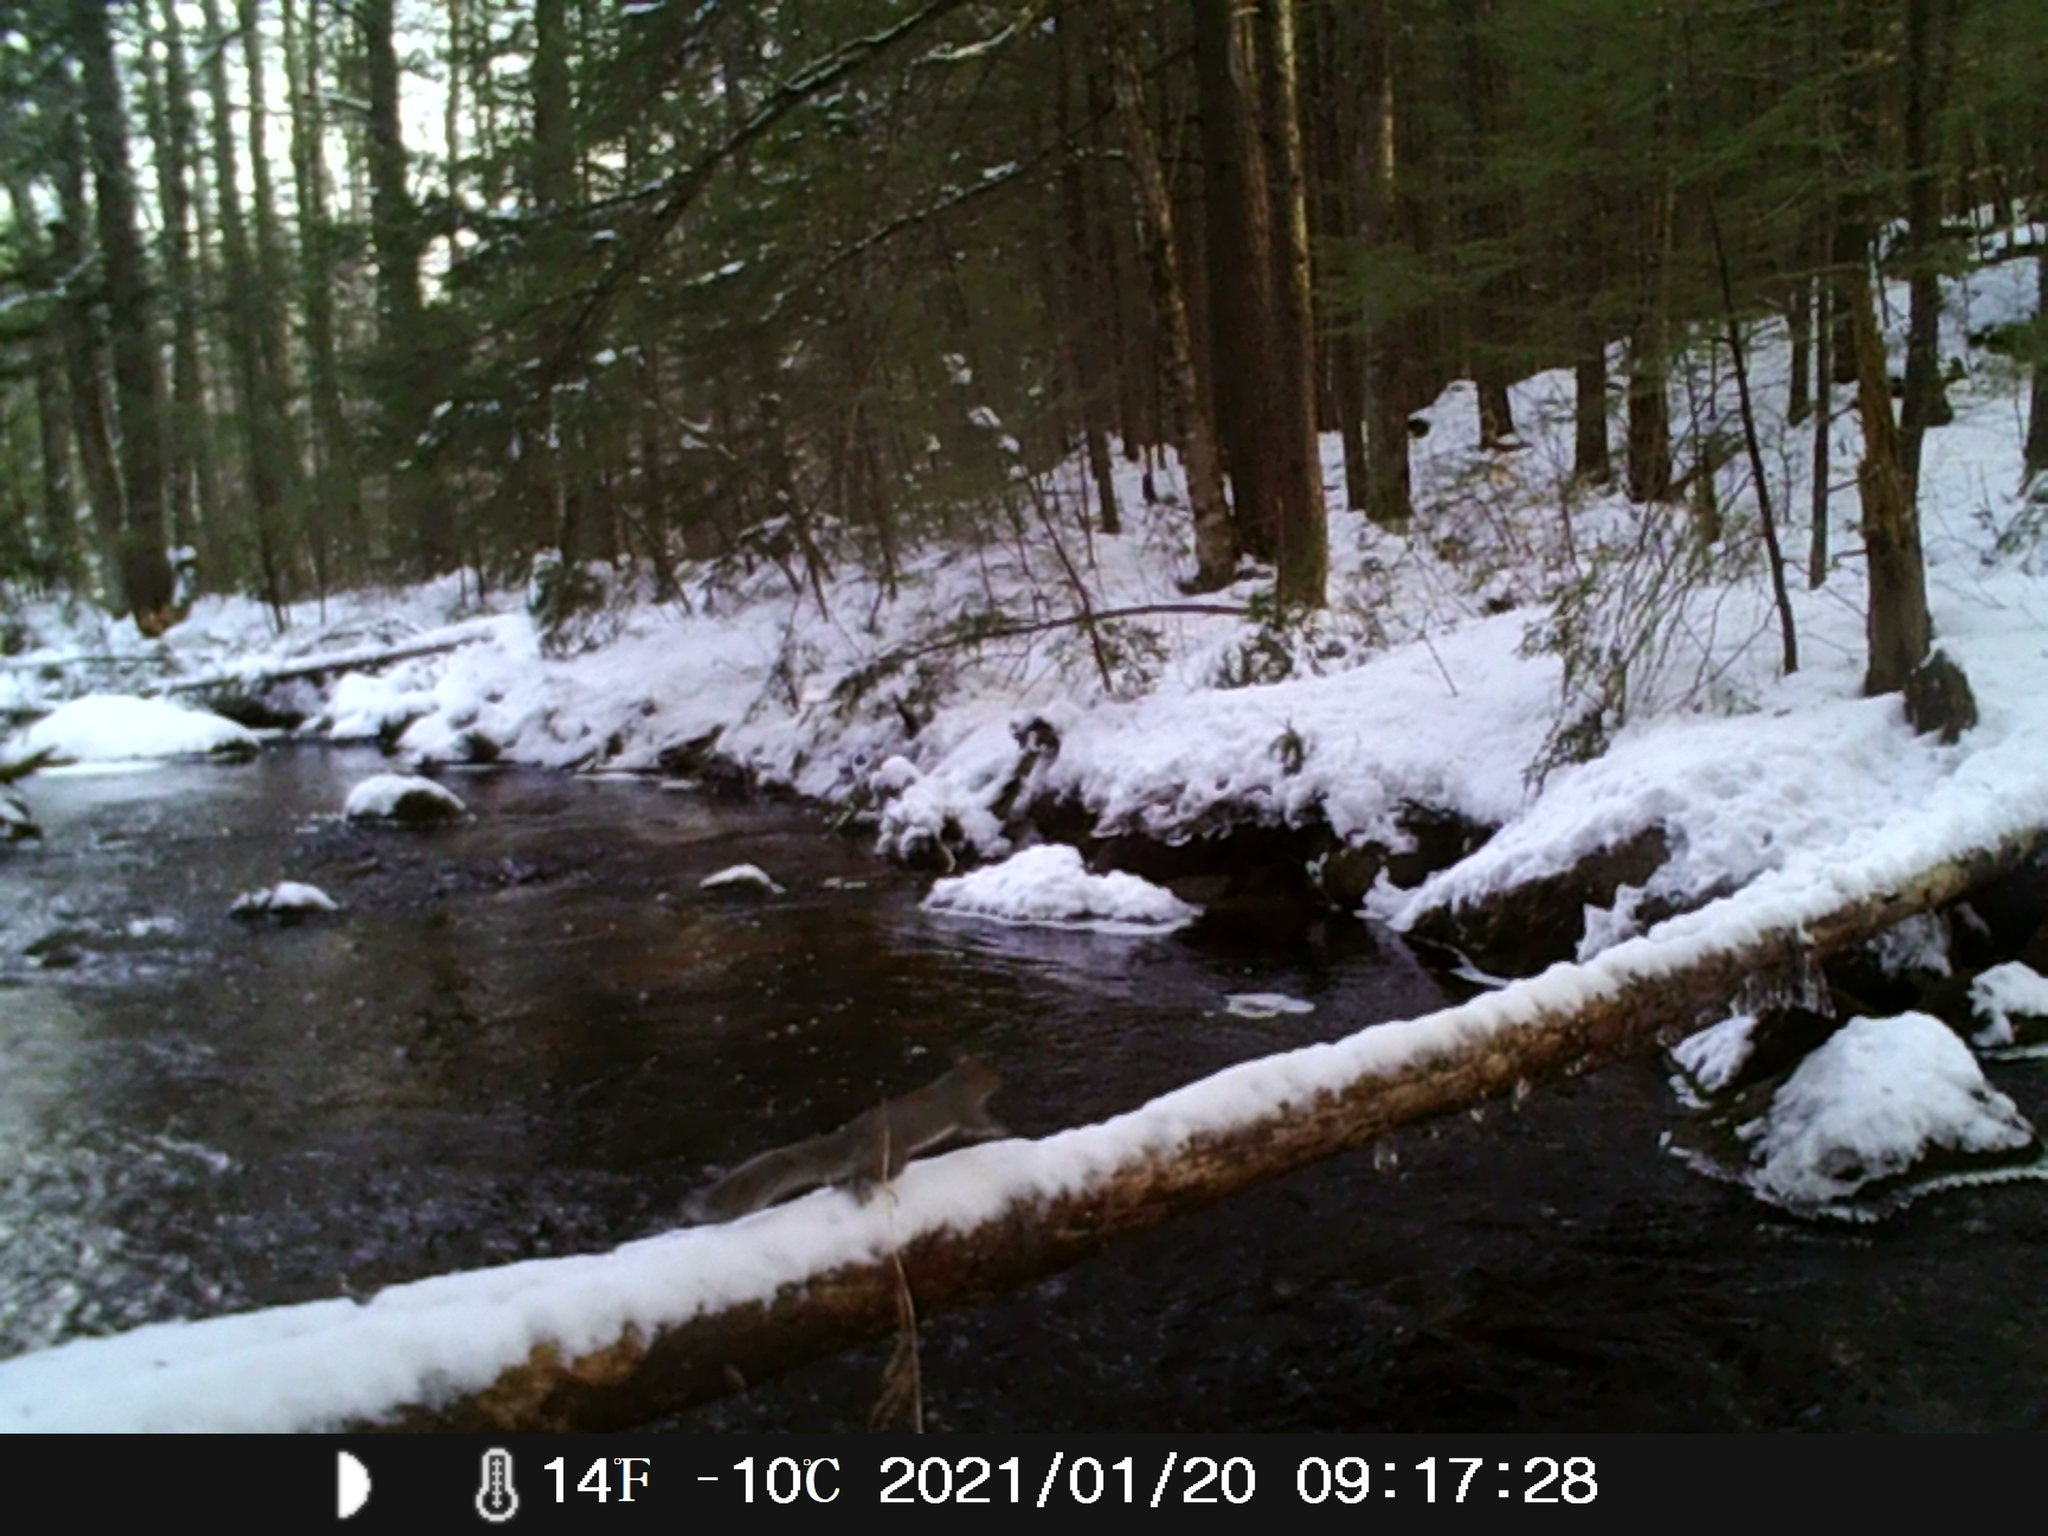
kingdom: Animalia
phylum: Chordata
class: Mammalia
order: Rodentia
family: Sciuridae
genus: Sciurus
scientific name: Sciurus carolinensis
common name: Eastern gray squirrel
